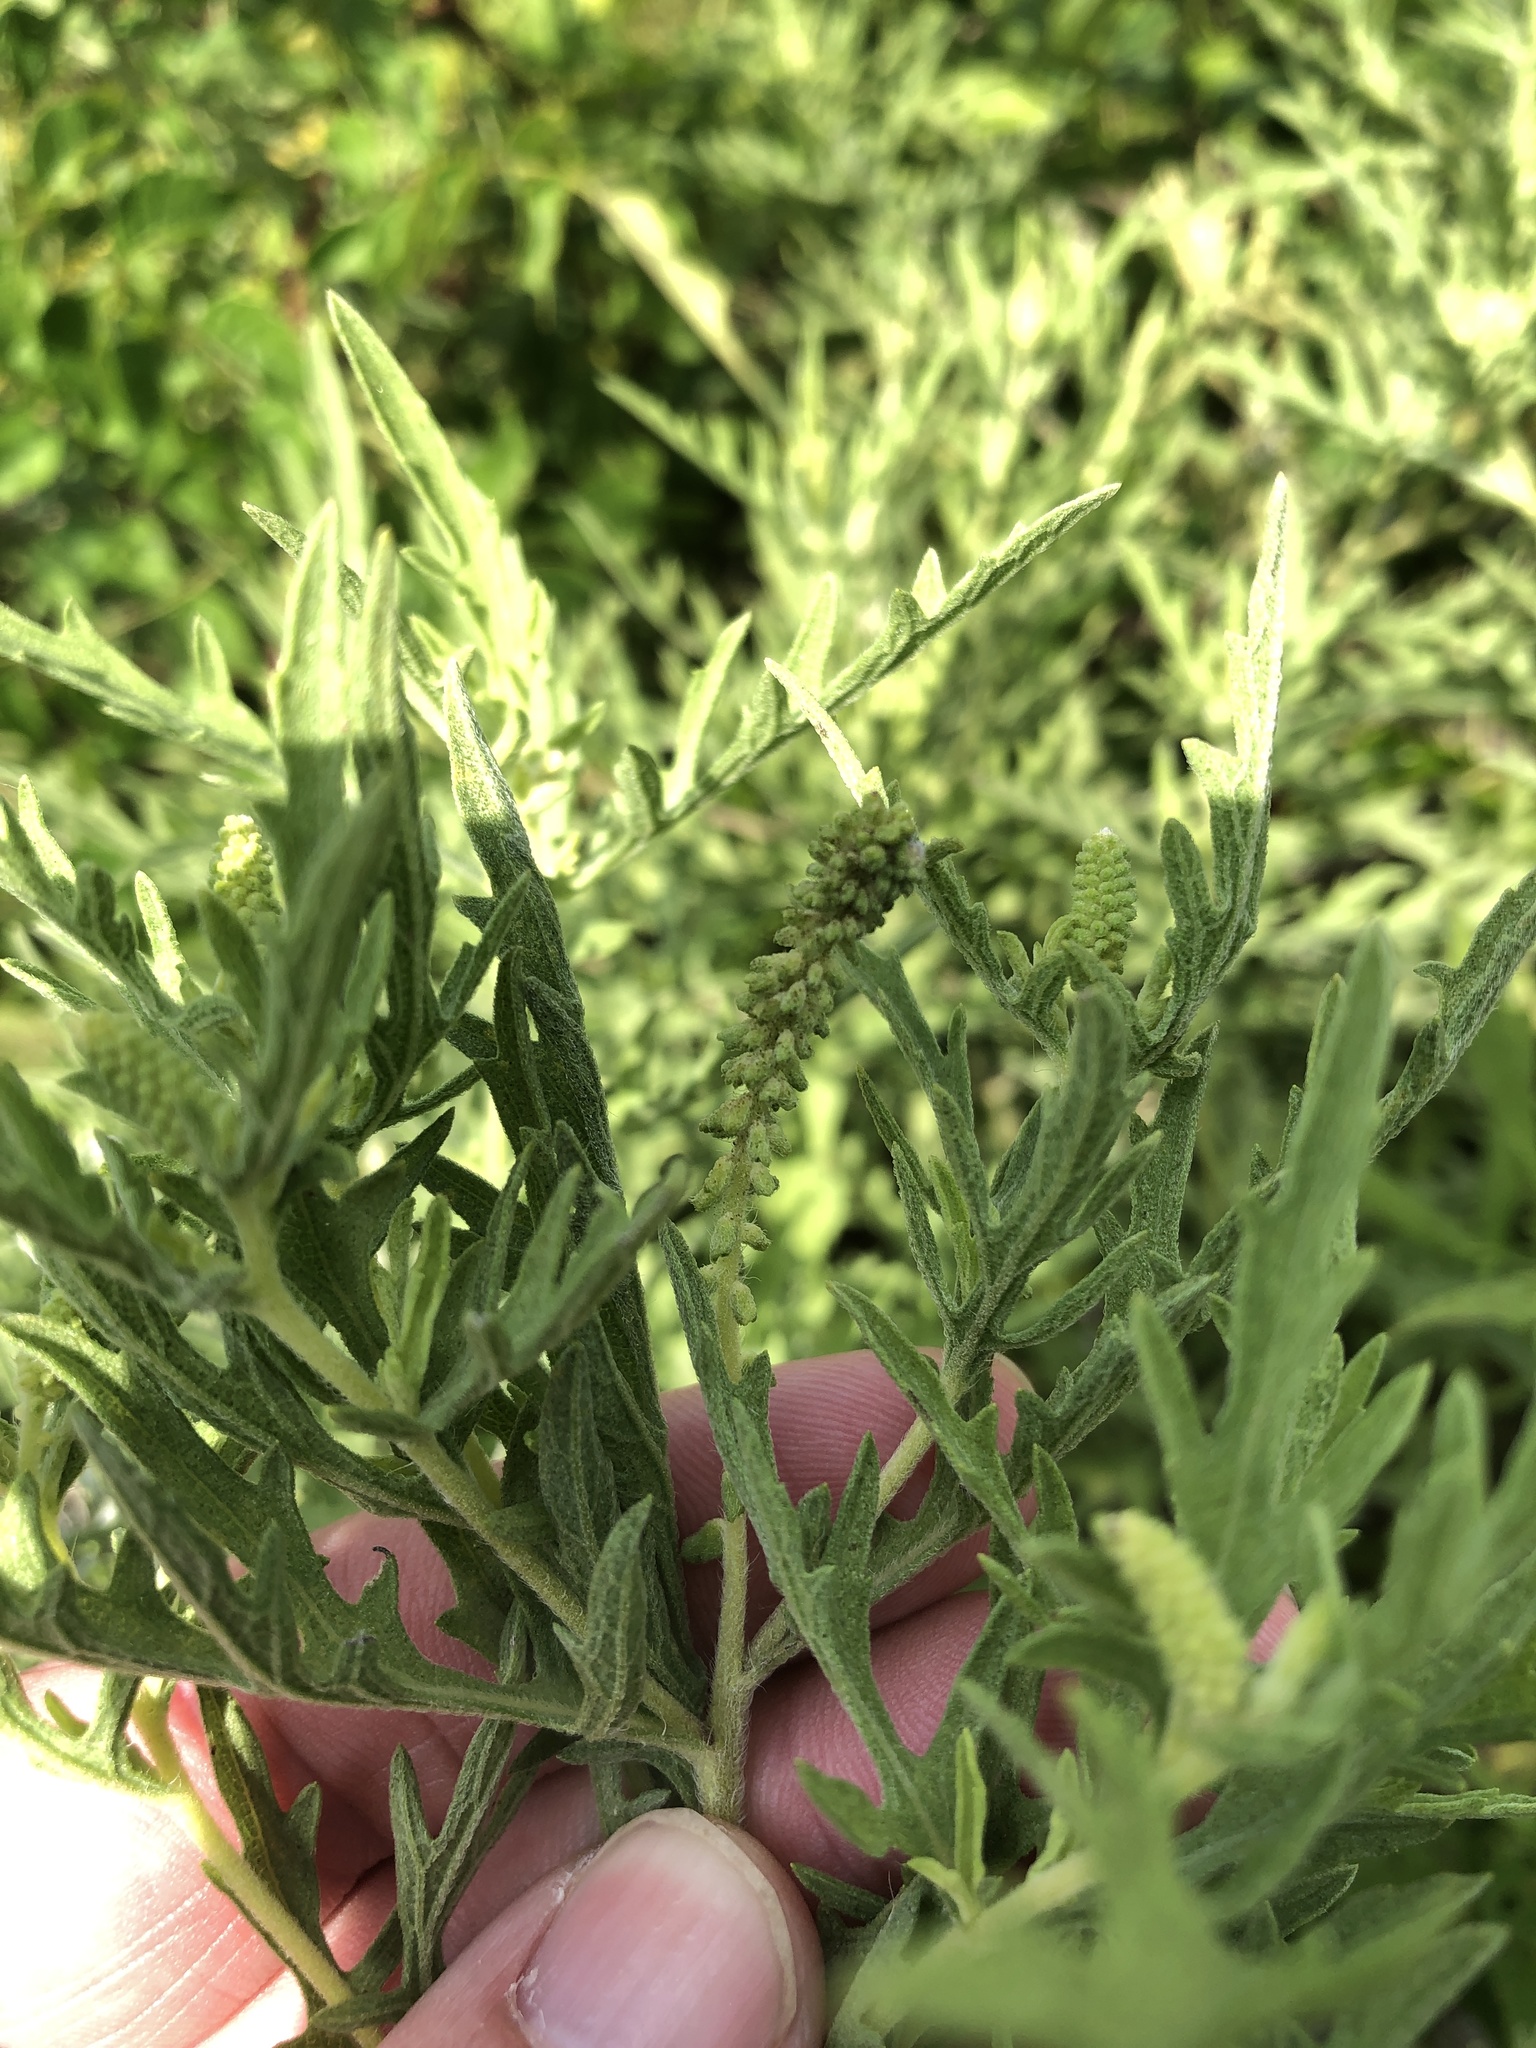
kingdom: Plantae
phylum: Tracheophyta
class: Magnoliopsida
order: Asterales
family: Asteraceae
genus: Ambrosia
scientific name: Ambrosia psilostachya
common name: Perennial ragweed
